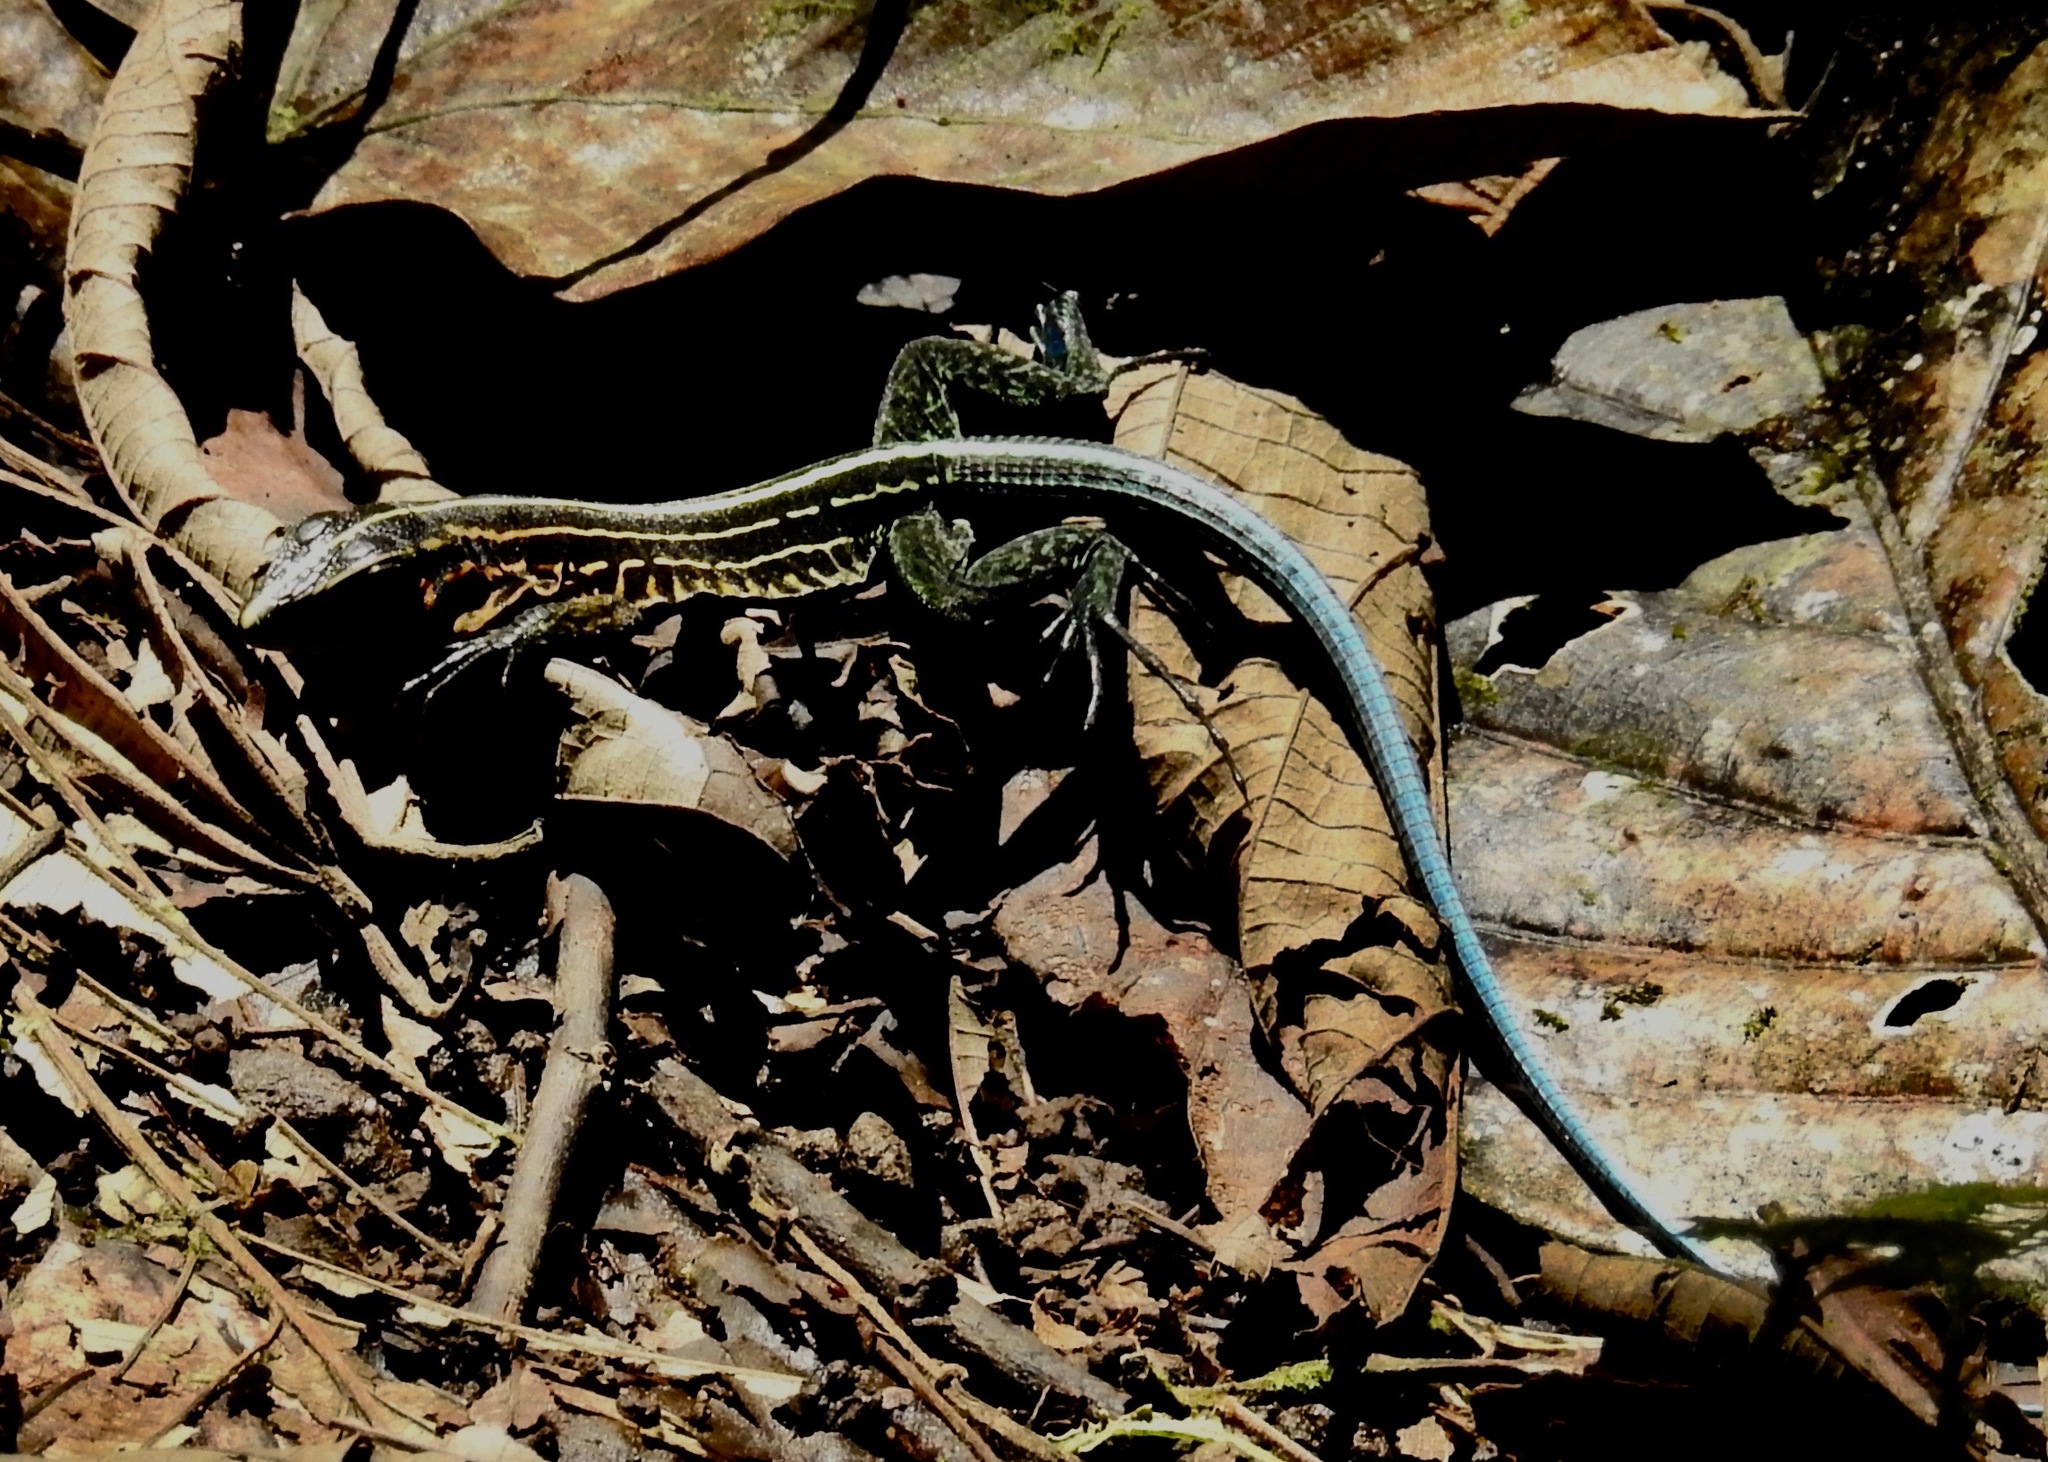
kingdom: Animalia
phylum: Chordata
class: Squamata
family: Teiidae
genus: Holcosus
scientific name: Holcosus septemlineatus
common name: Seven-lined ameiva
